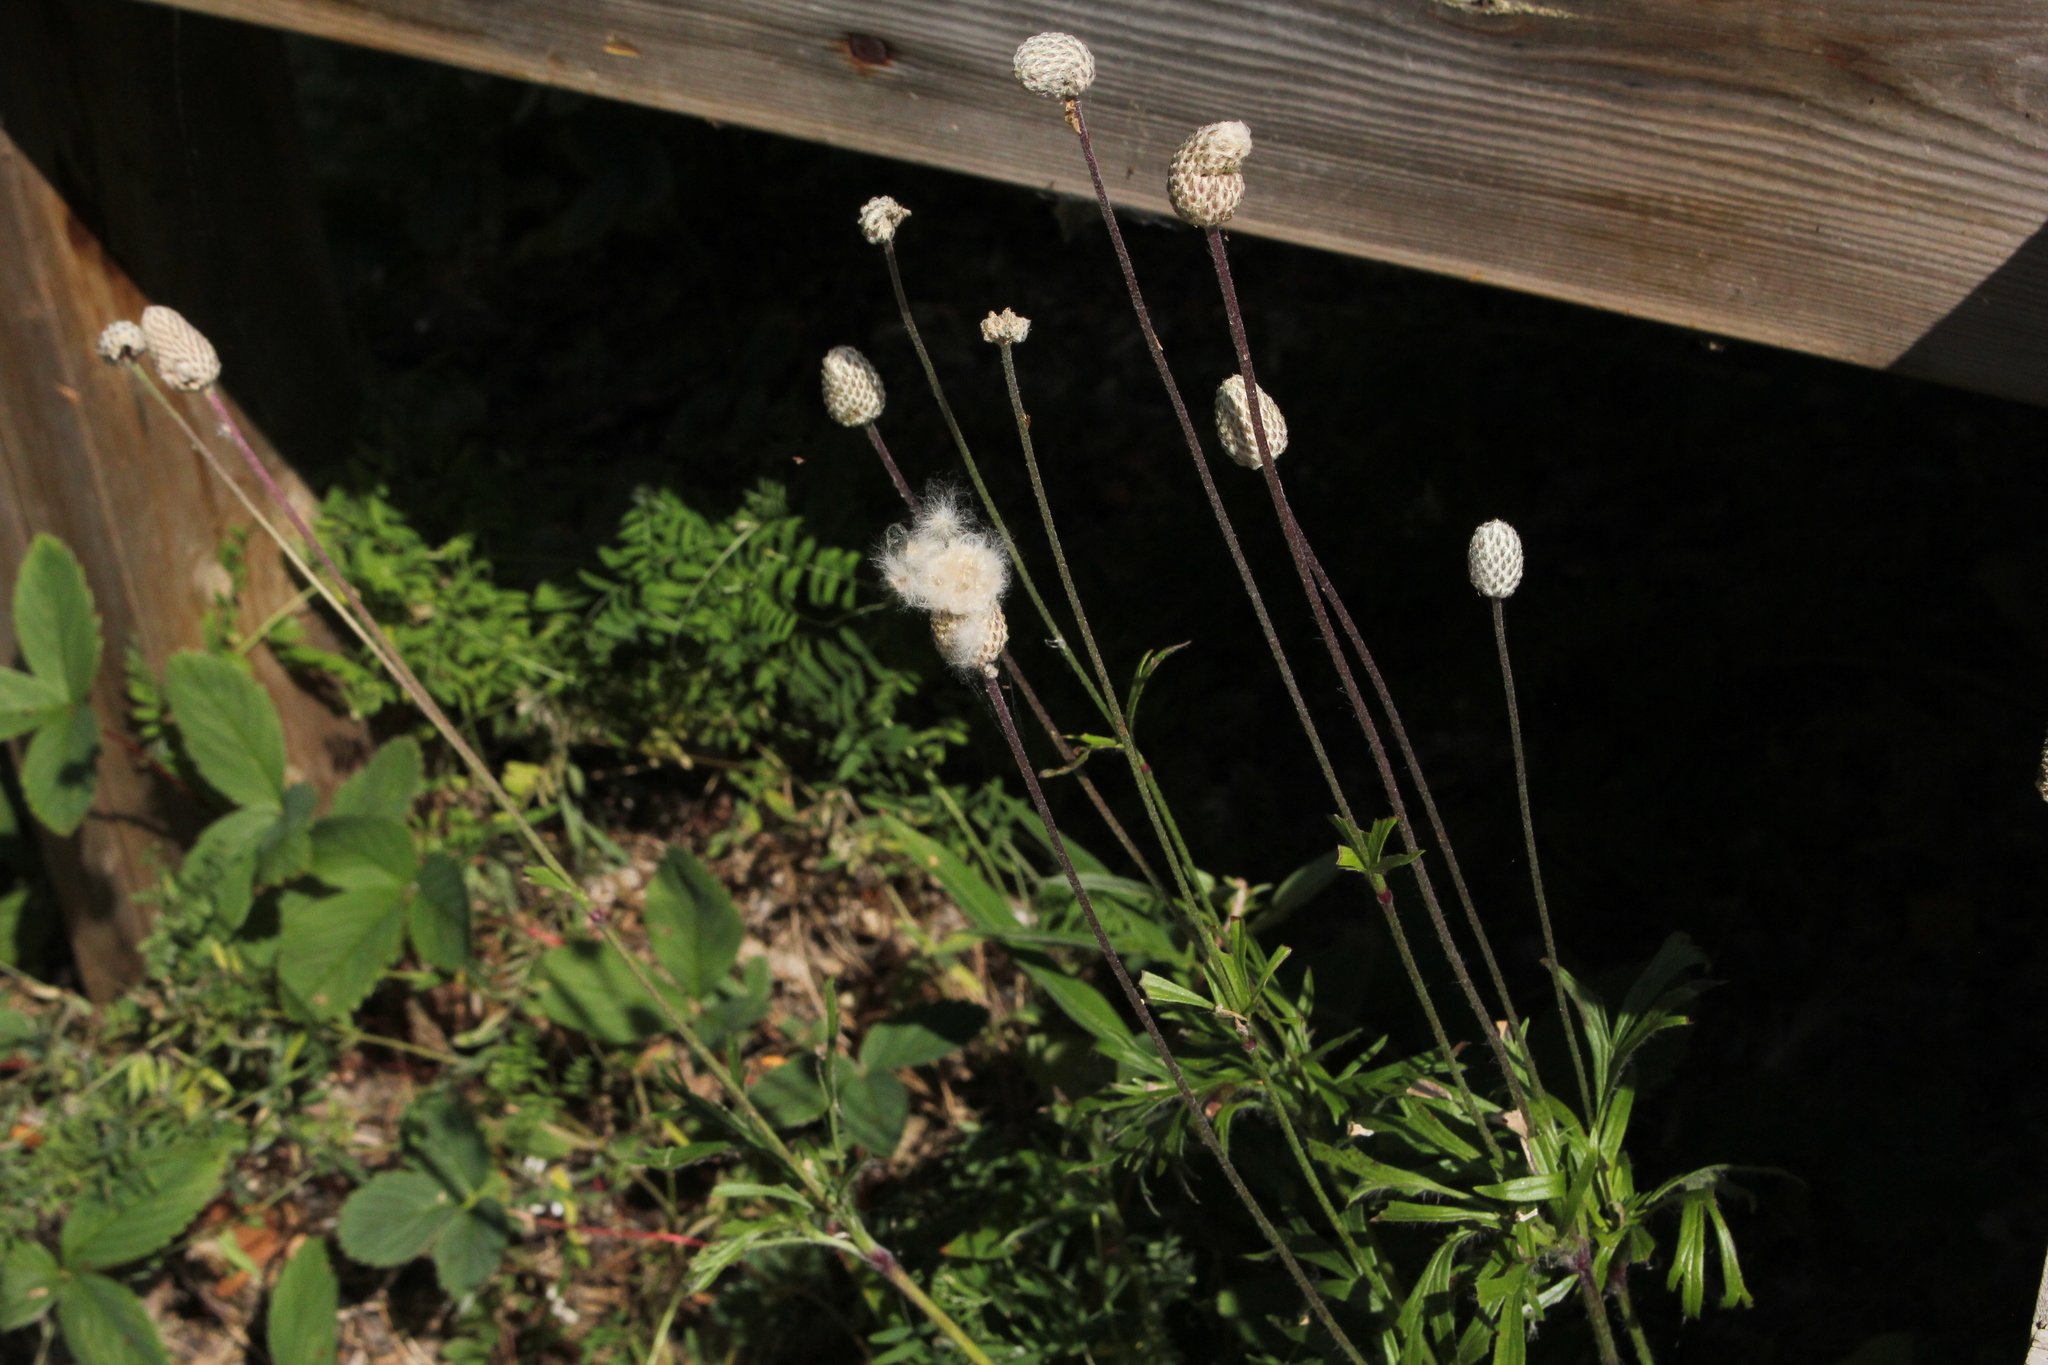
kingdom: Plantae
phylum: Tracheophyta
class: Magnoliopsida
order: Ranunculales
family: Ranunculaceae
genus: Anemone
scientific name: Anemone multifida
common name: Bird's-foot anemone
